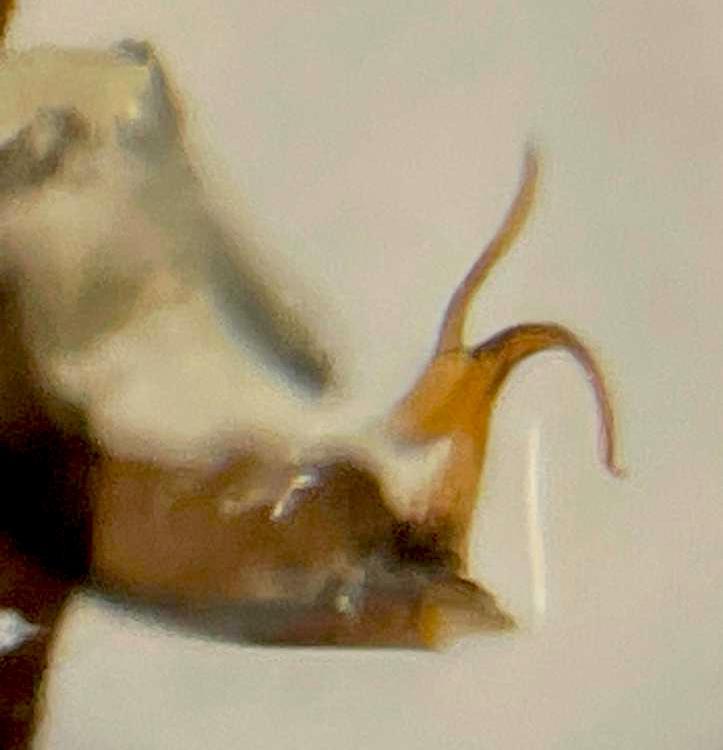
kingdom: Animalia
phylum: Arthropoda
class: Insecta
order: Hemiptera
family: Cicadellidae
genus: Eupteryx
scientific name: Eupteryx atropunctata
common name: Leafhopper
